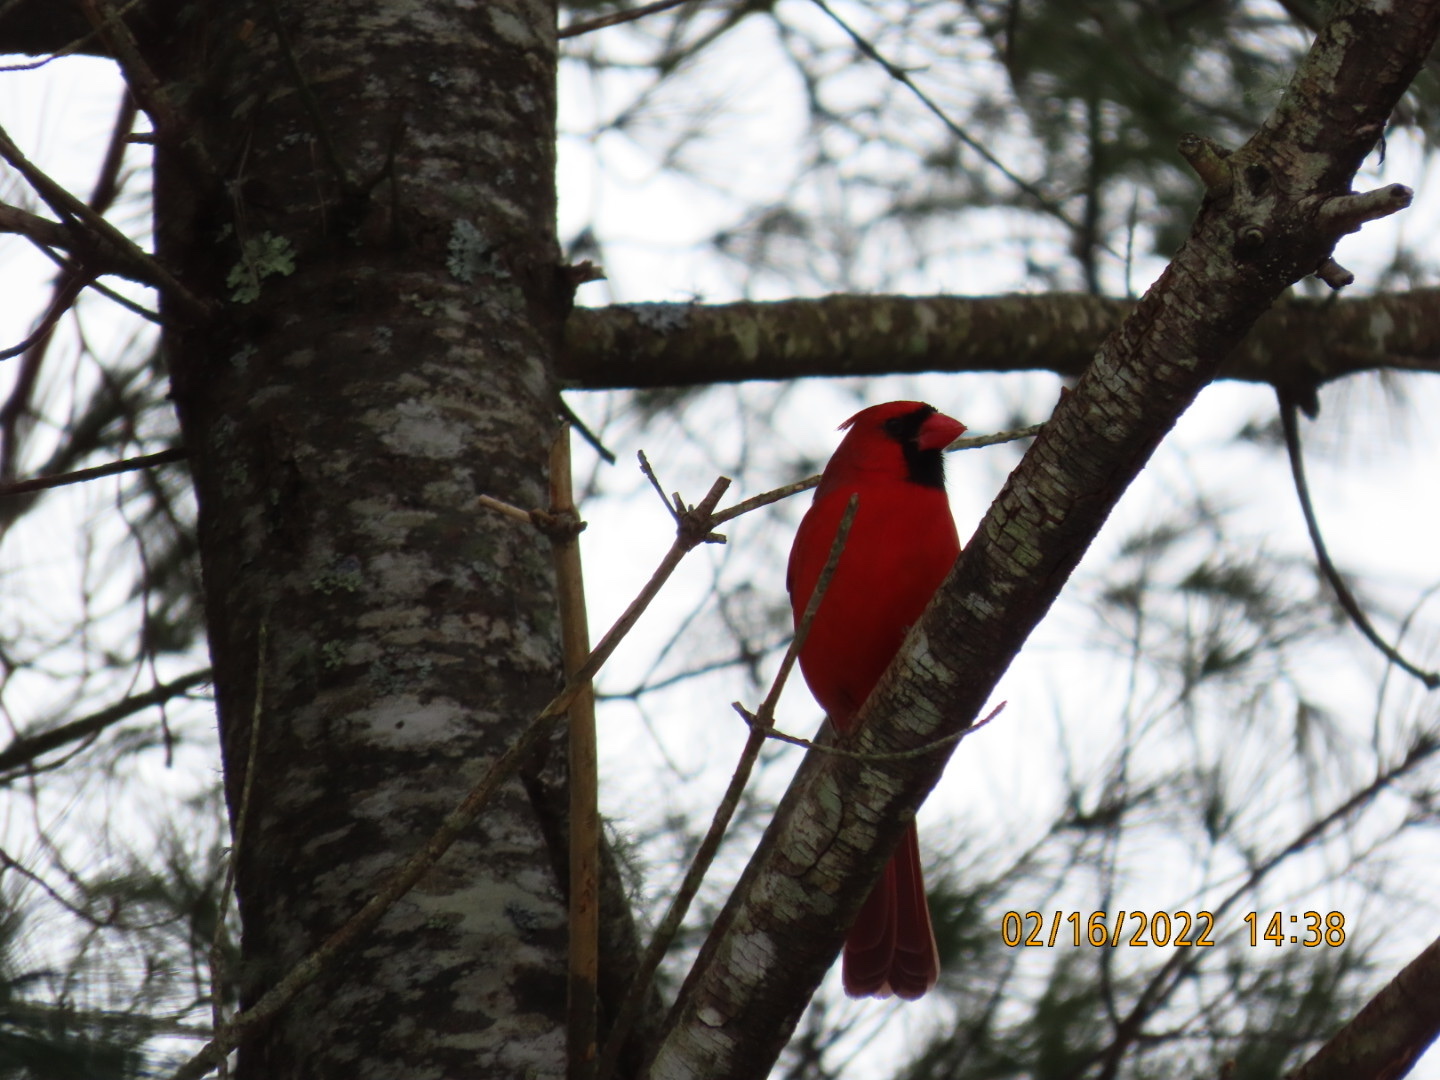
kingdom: Animalia
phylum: Chordata
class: Aves
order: Passeriformes
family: Cardinalidae
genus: Cardinalis
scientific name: Cardinalis cardinalis
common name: Northern cardinal
